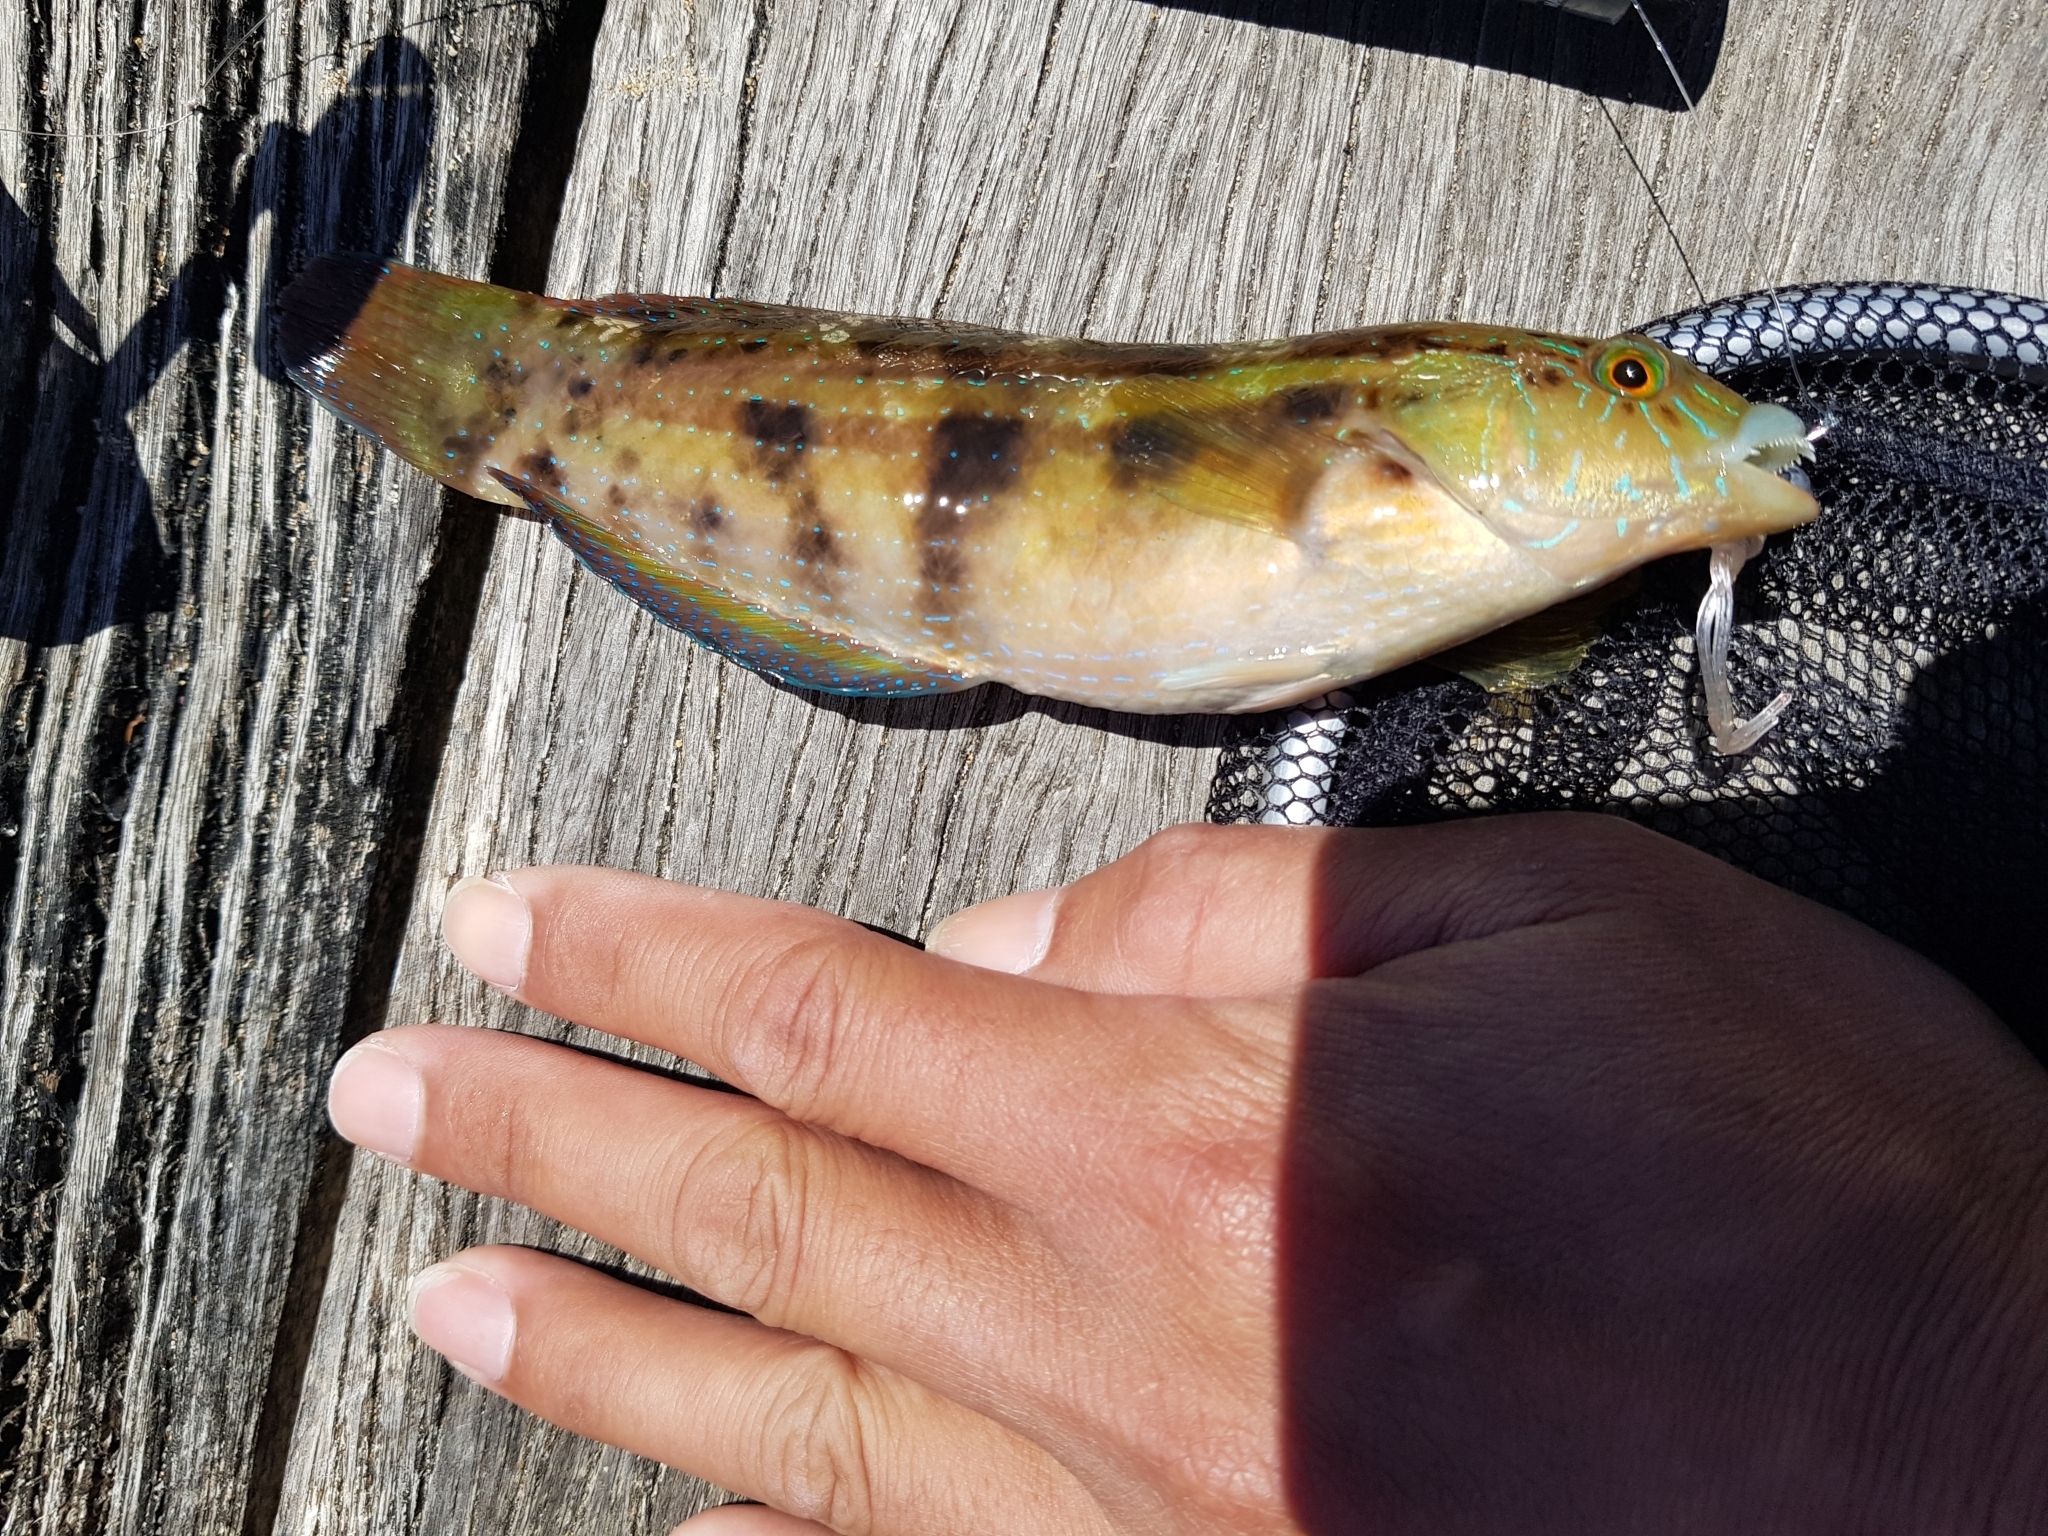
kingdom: Animalia
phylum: Chordata
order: Perciformes
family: Labridae
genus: Pictilabrus
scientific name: Pictilabrus laticlavius
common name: Patrician wrasse
